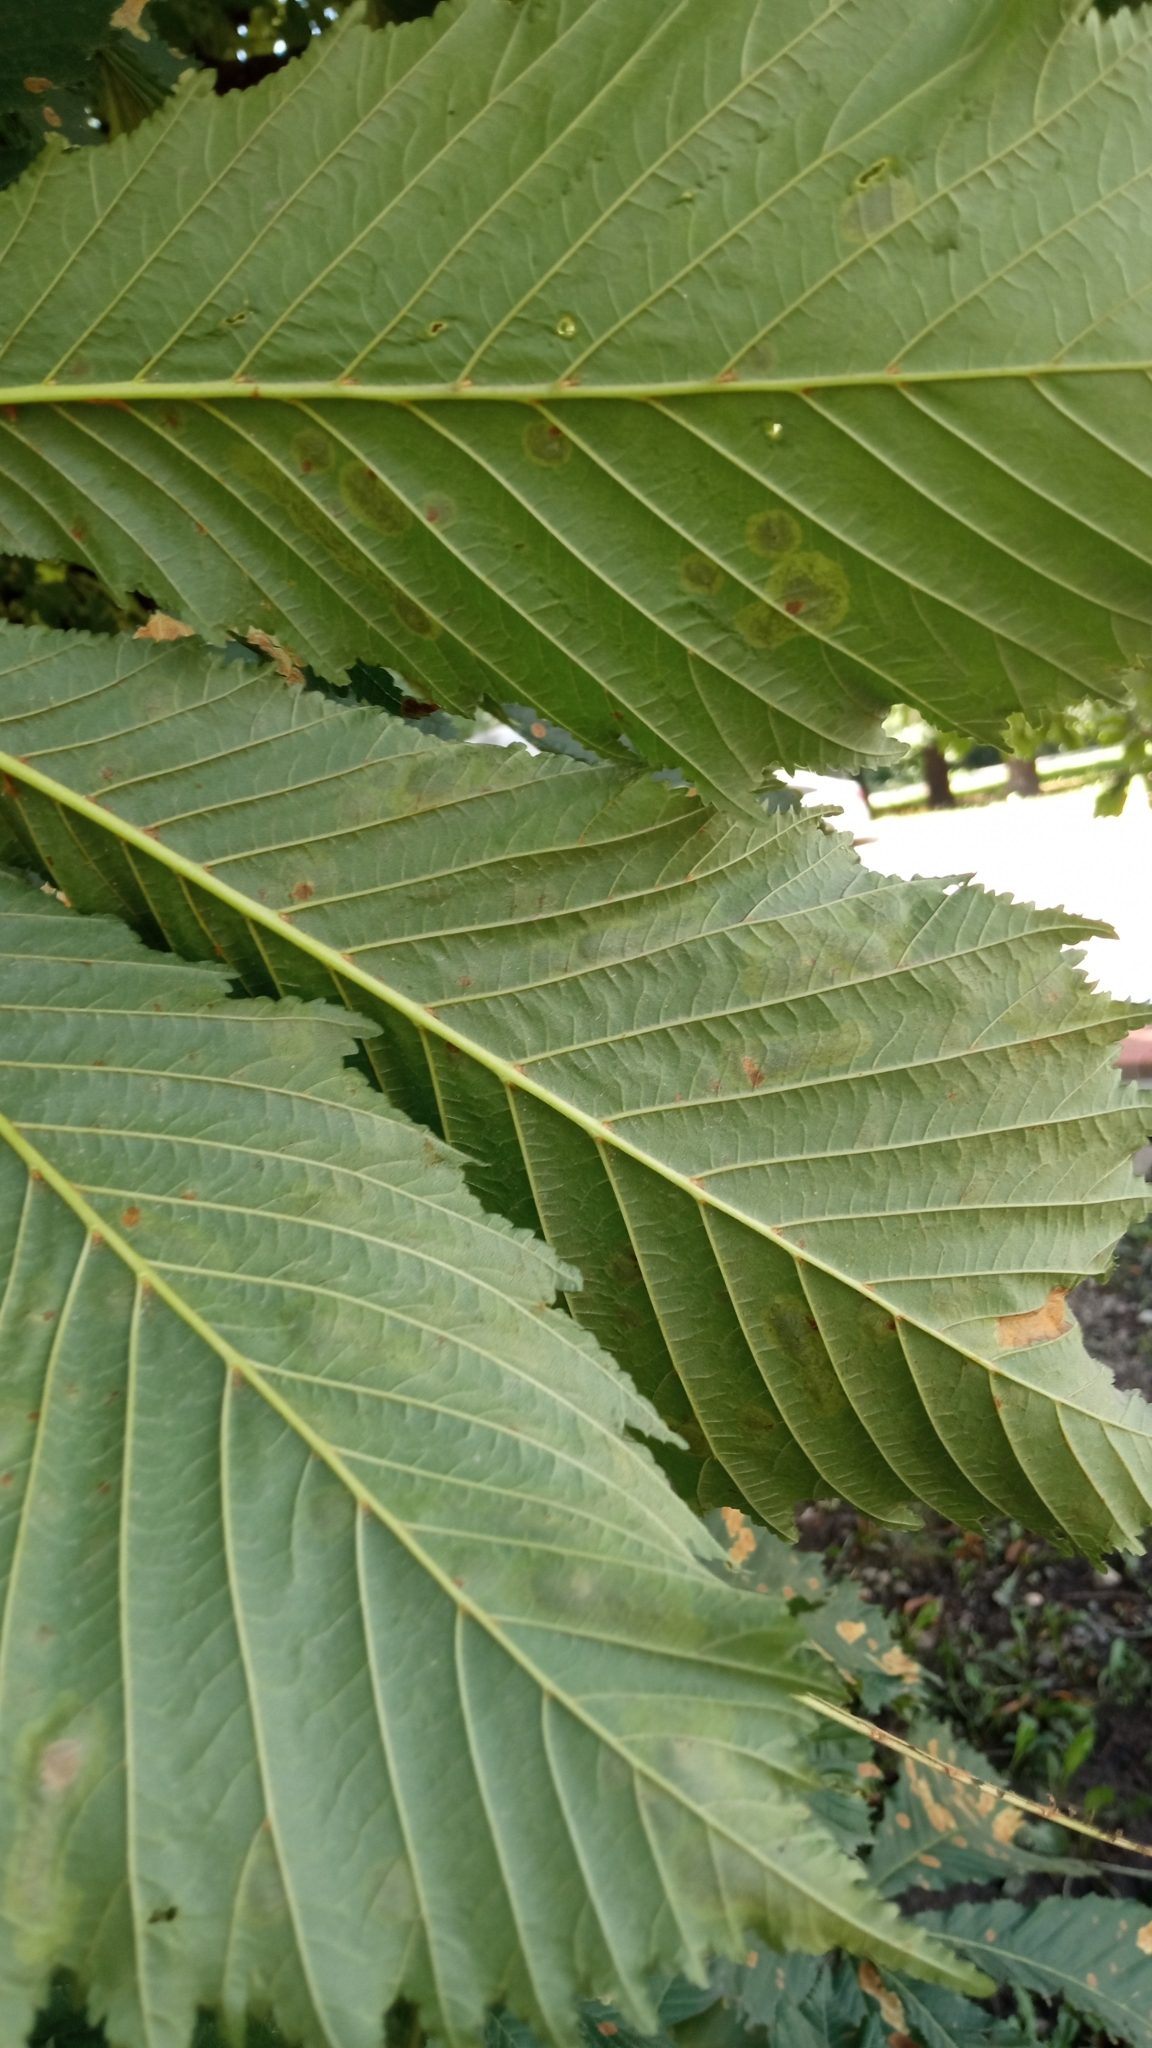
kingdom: Animalia
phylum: Arthropoda
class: Insecta
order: Lepidoptera
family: Gracillariidae
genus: Cameraria
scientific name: Cameraria ohridella
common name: Horse-chestnut leaf-miner
